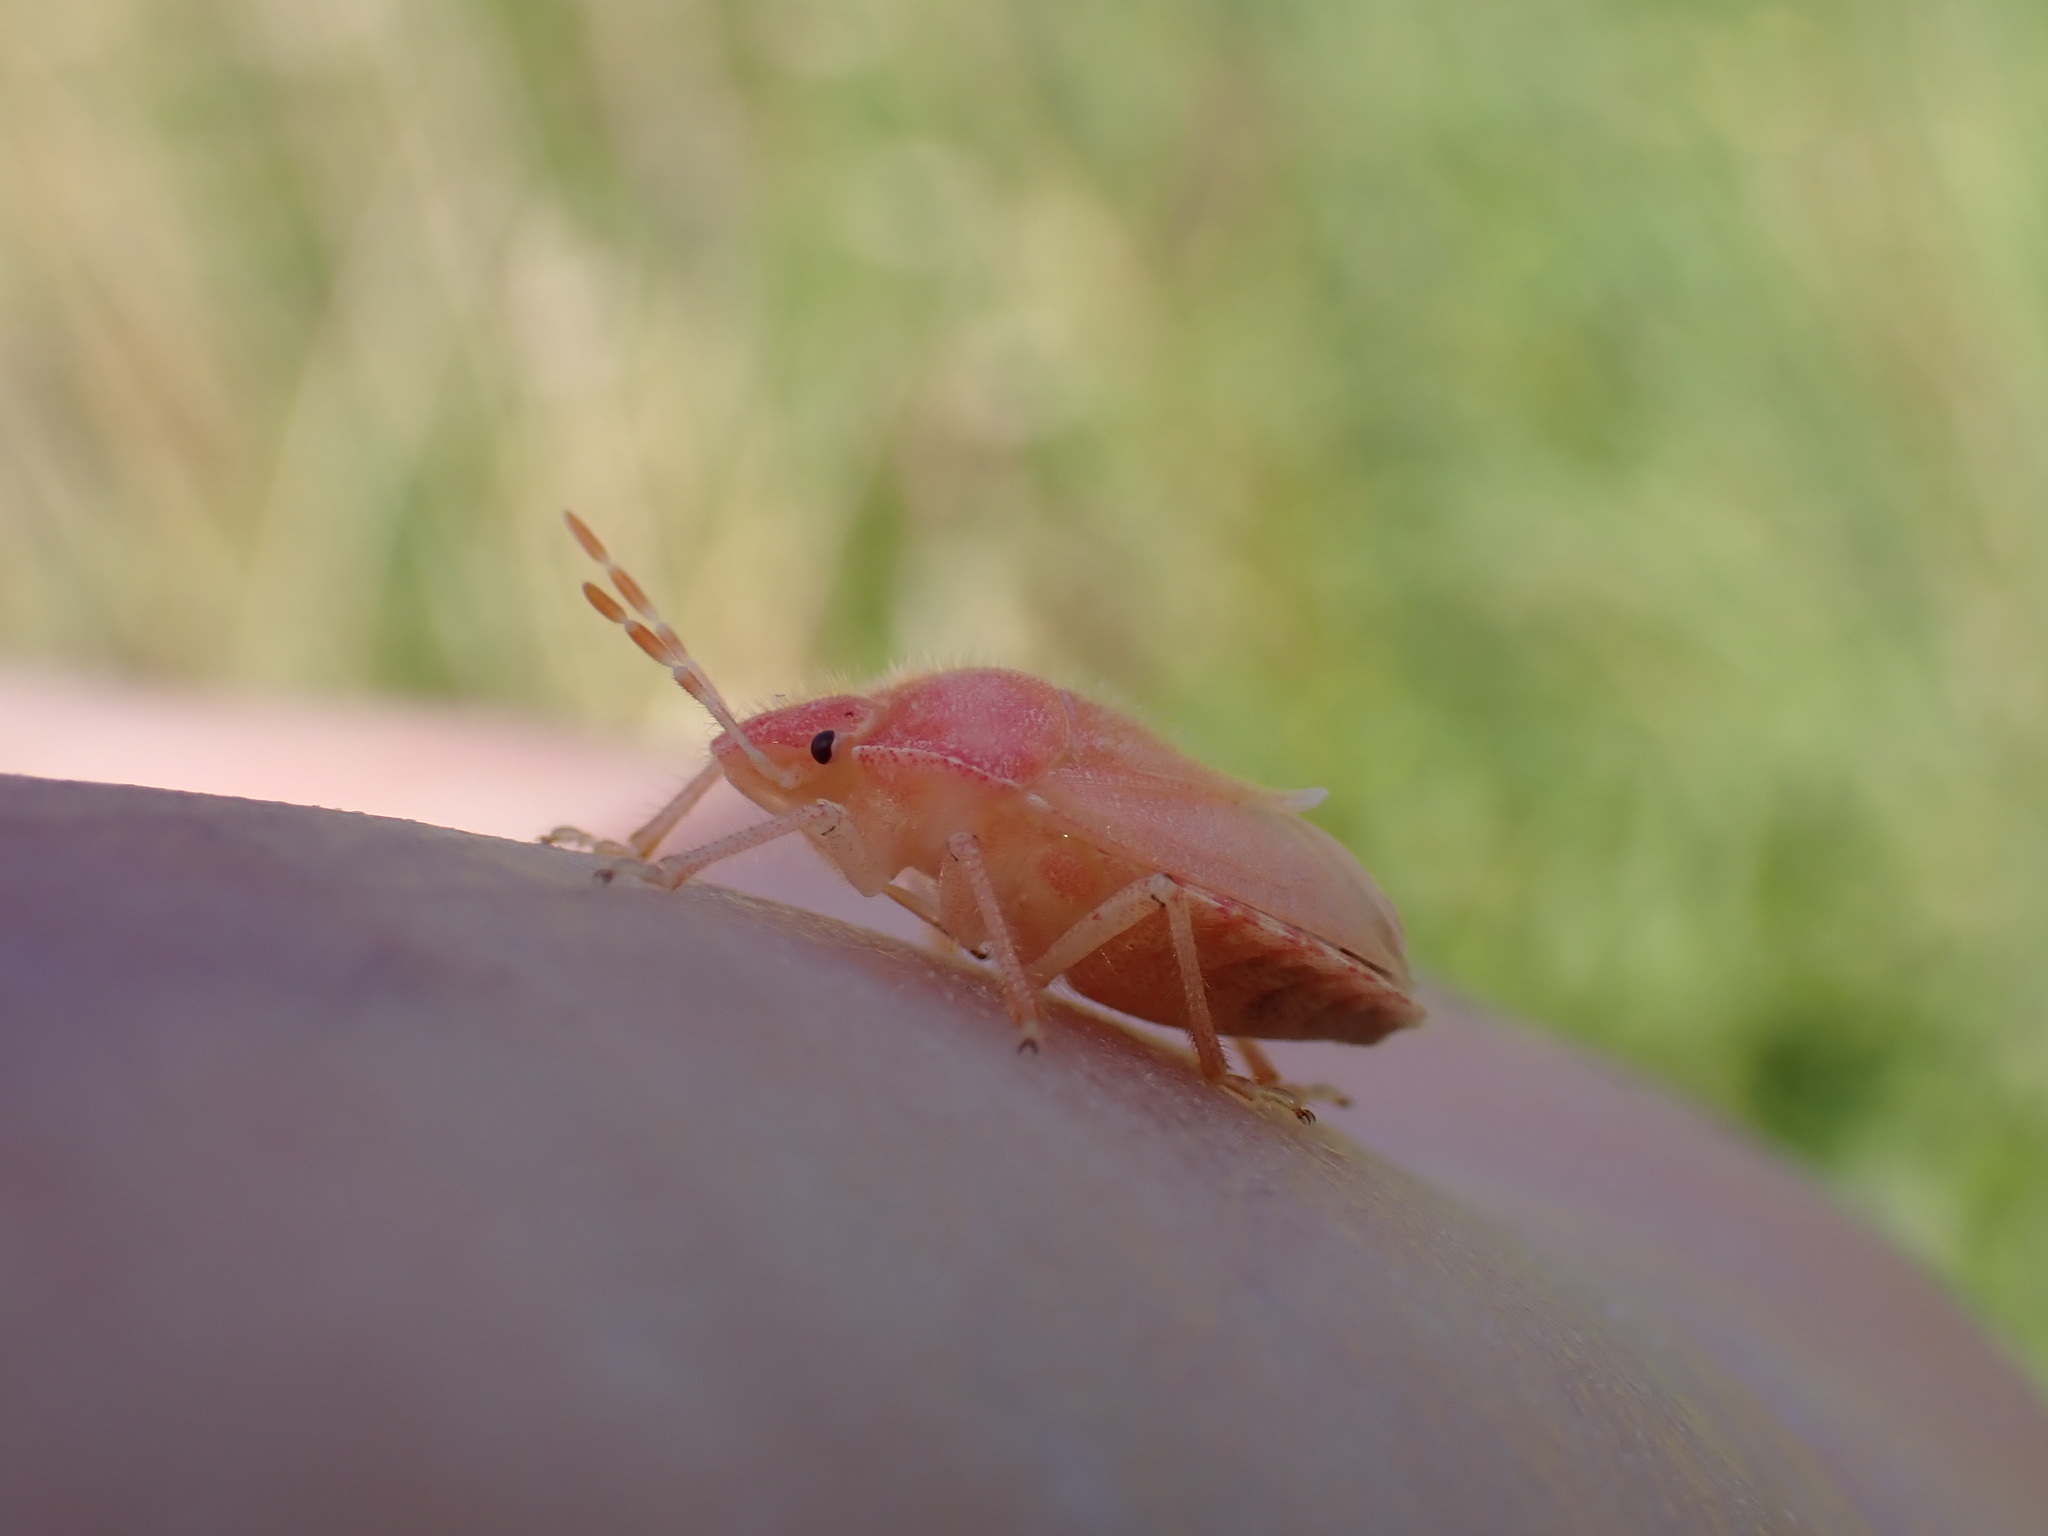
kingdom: Animalia
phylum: Arthropoda
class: Insecta
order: Hemiptera
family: Pentatomidae
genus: Dolycoris
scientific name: Dolycoris baccarum
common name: Sloe bug
